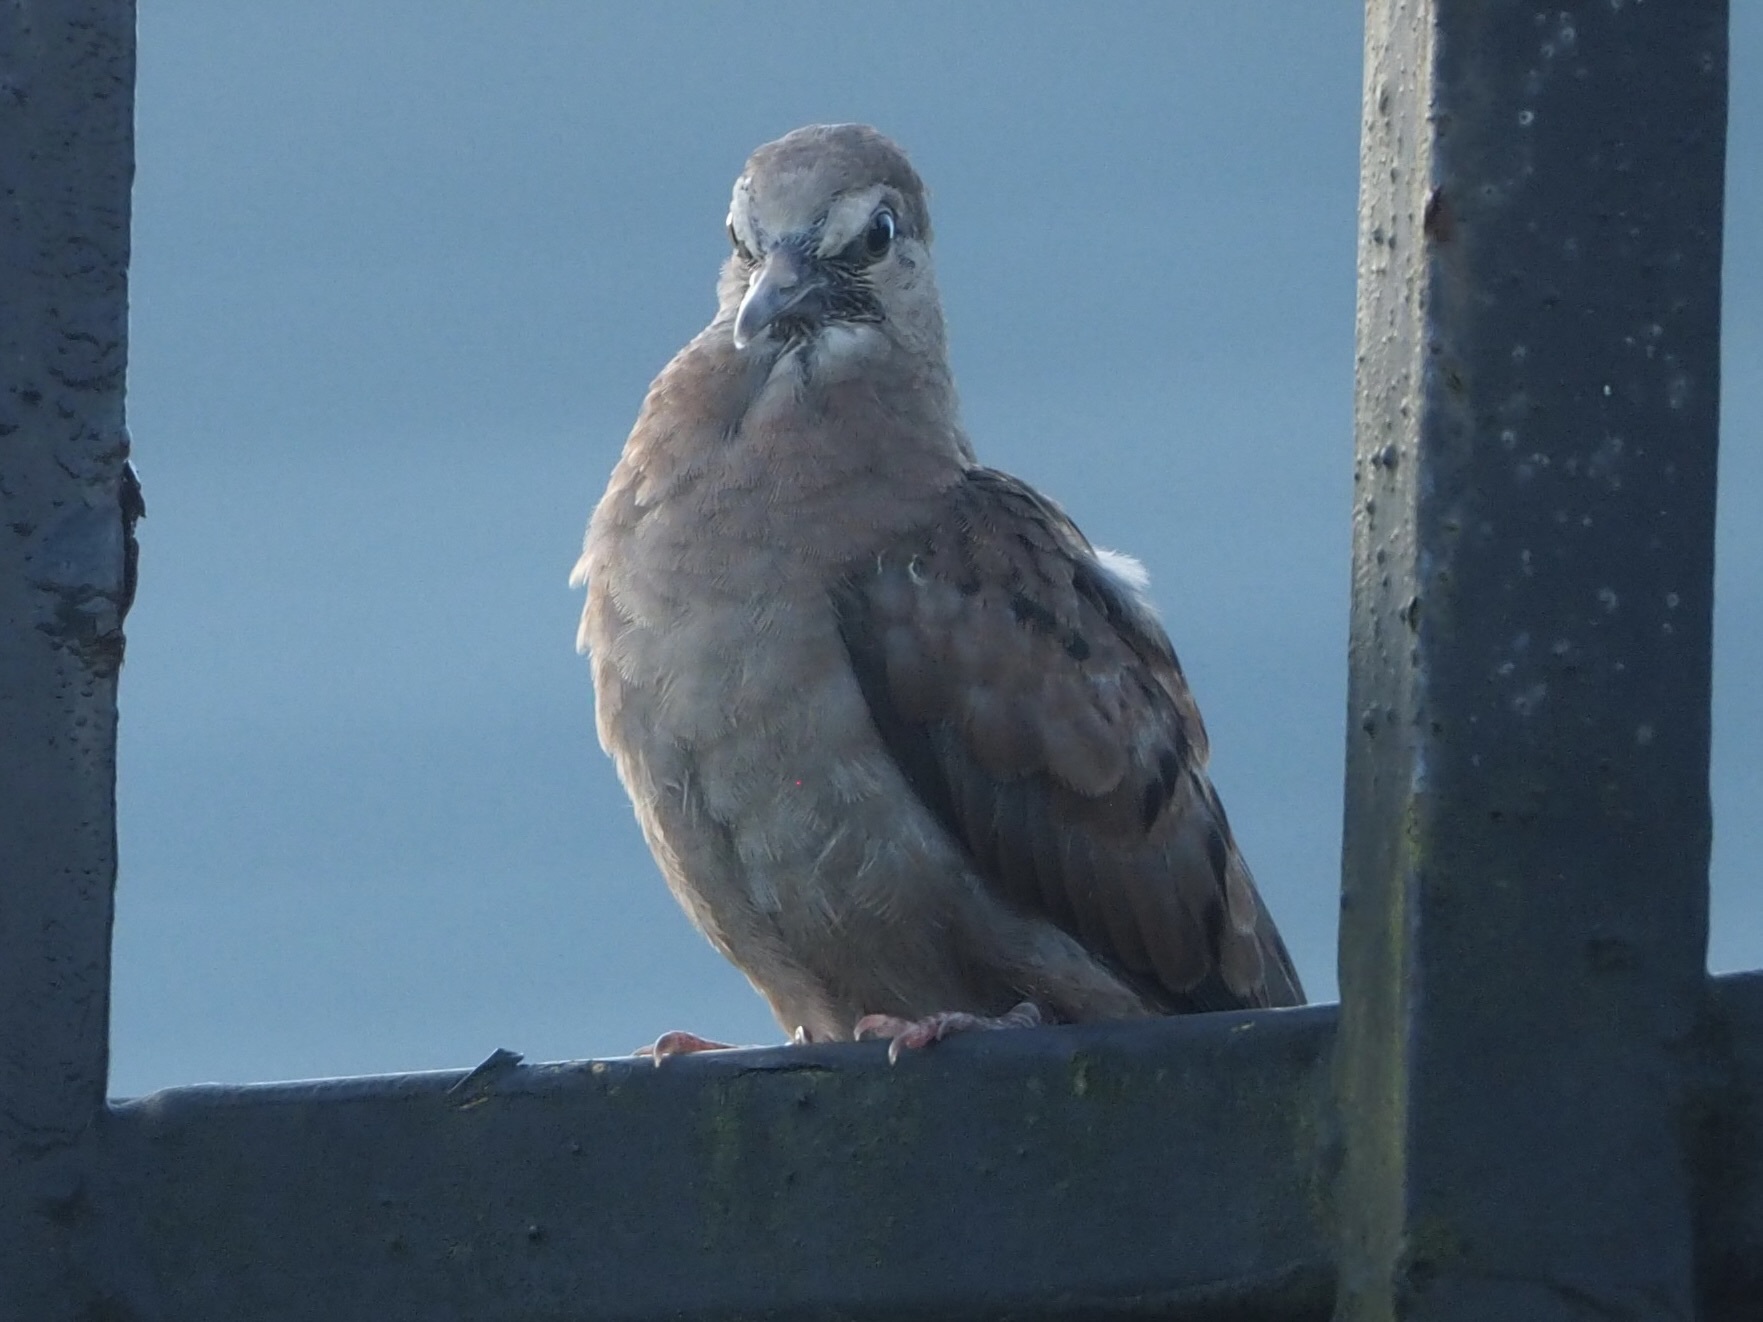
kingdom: Animalia
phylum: Chordata
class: Aves
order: Columbiformes
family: Columbidae
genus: Columbina
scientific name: Columbina talpacoti
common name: Ruddy ground dove
